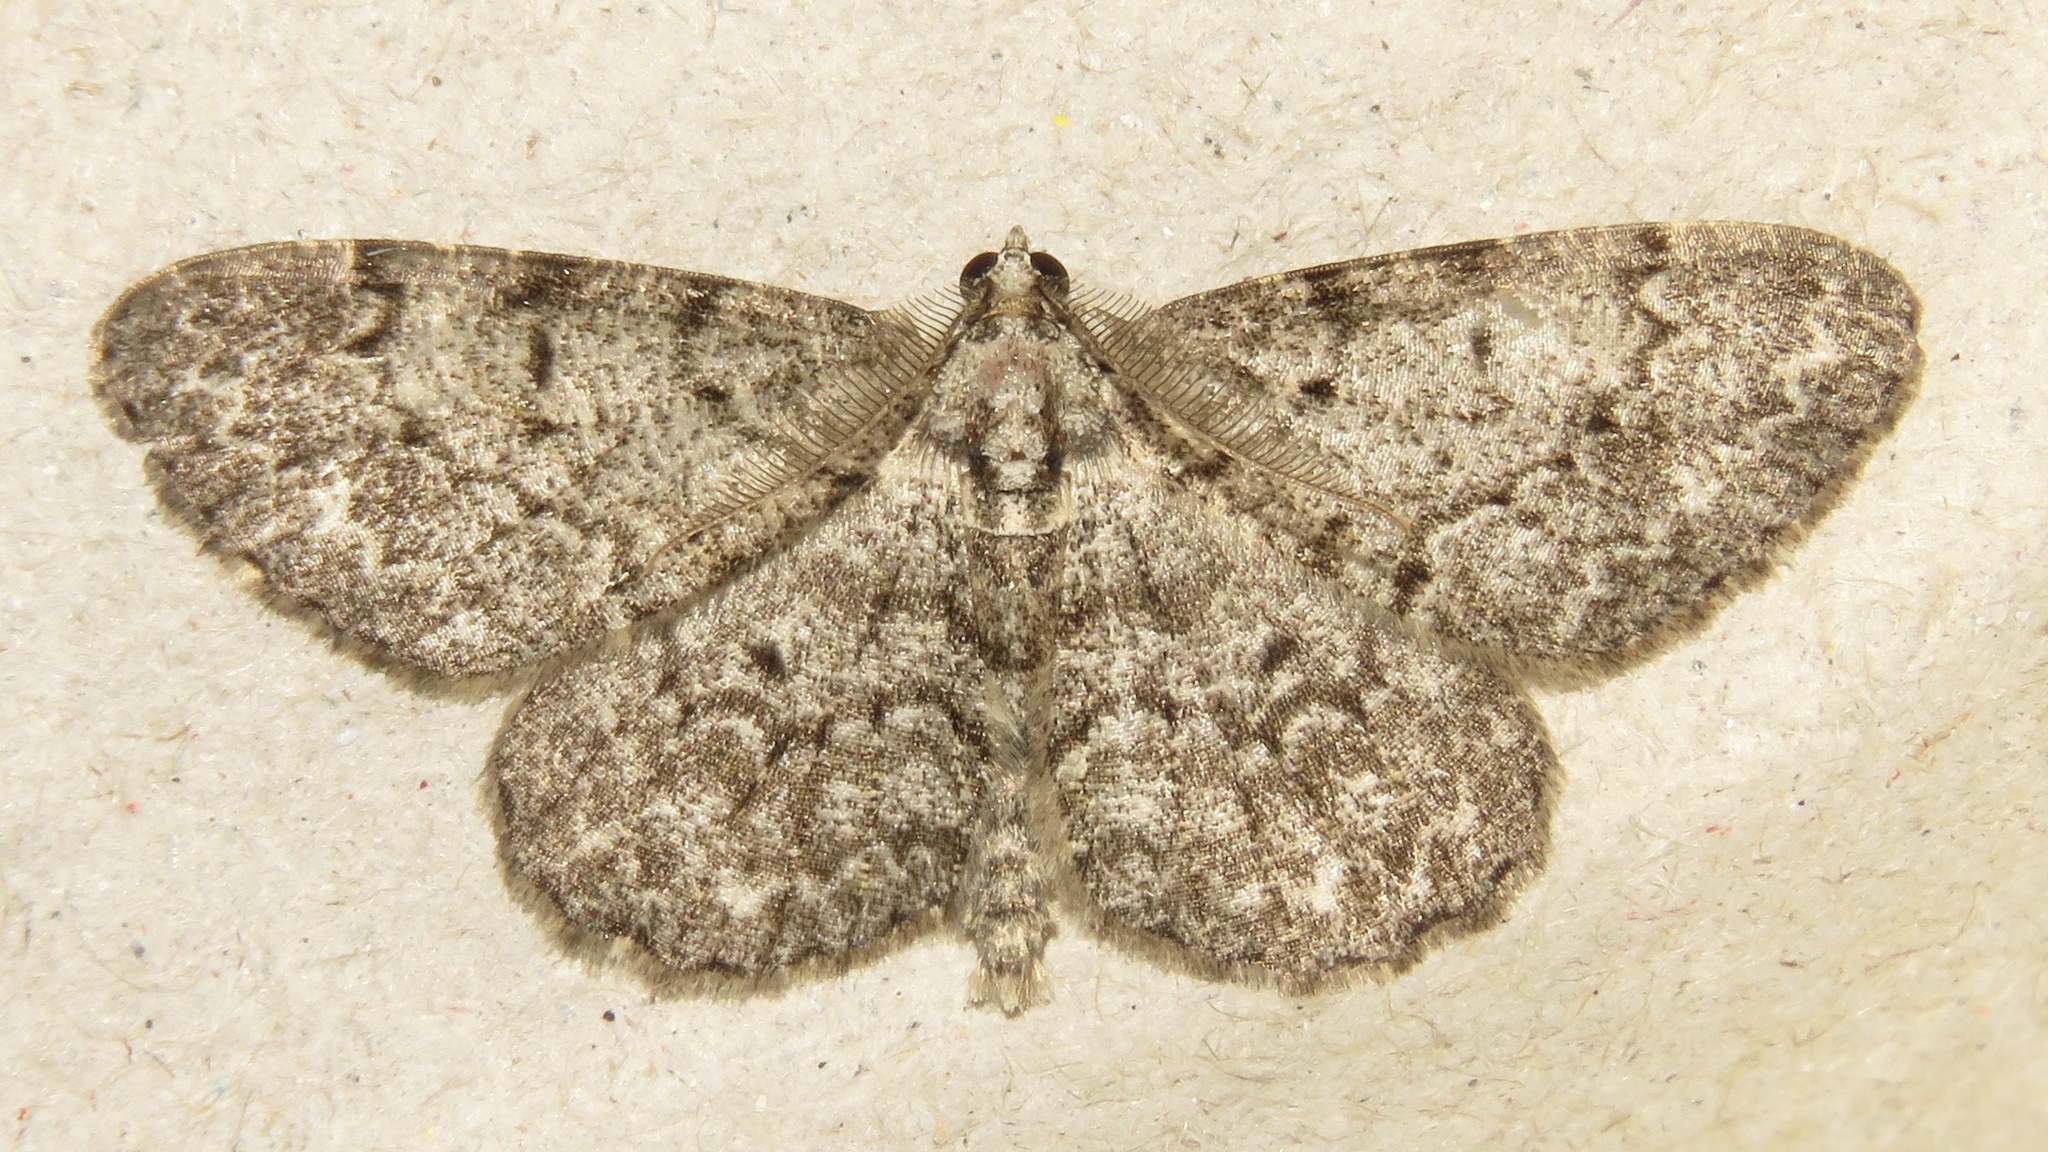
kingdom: Animalia
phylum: Arthropoda
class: Insecta
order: Lepidoptera
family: Geometridae
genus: Protoboarmia
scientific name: Protoboarmia porcelaria
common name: Porcelain gray
